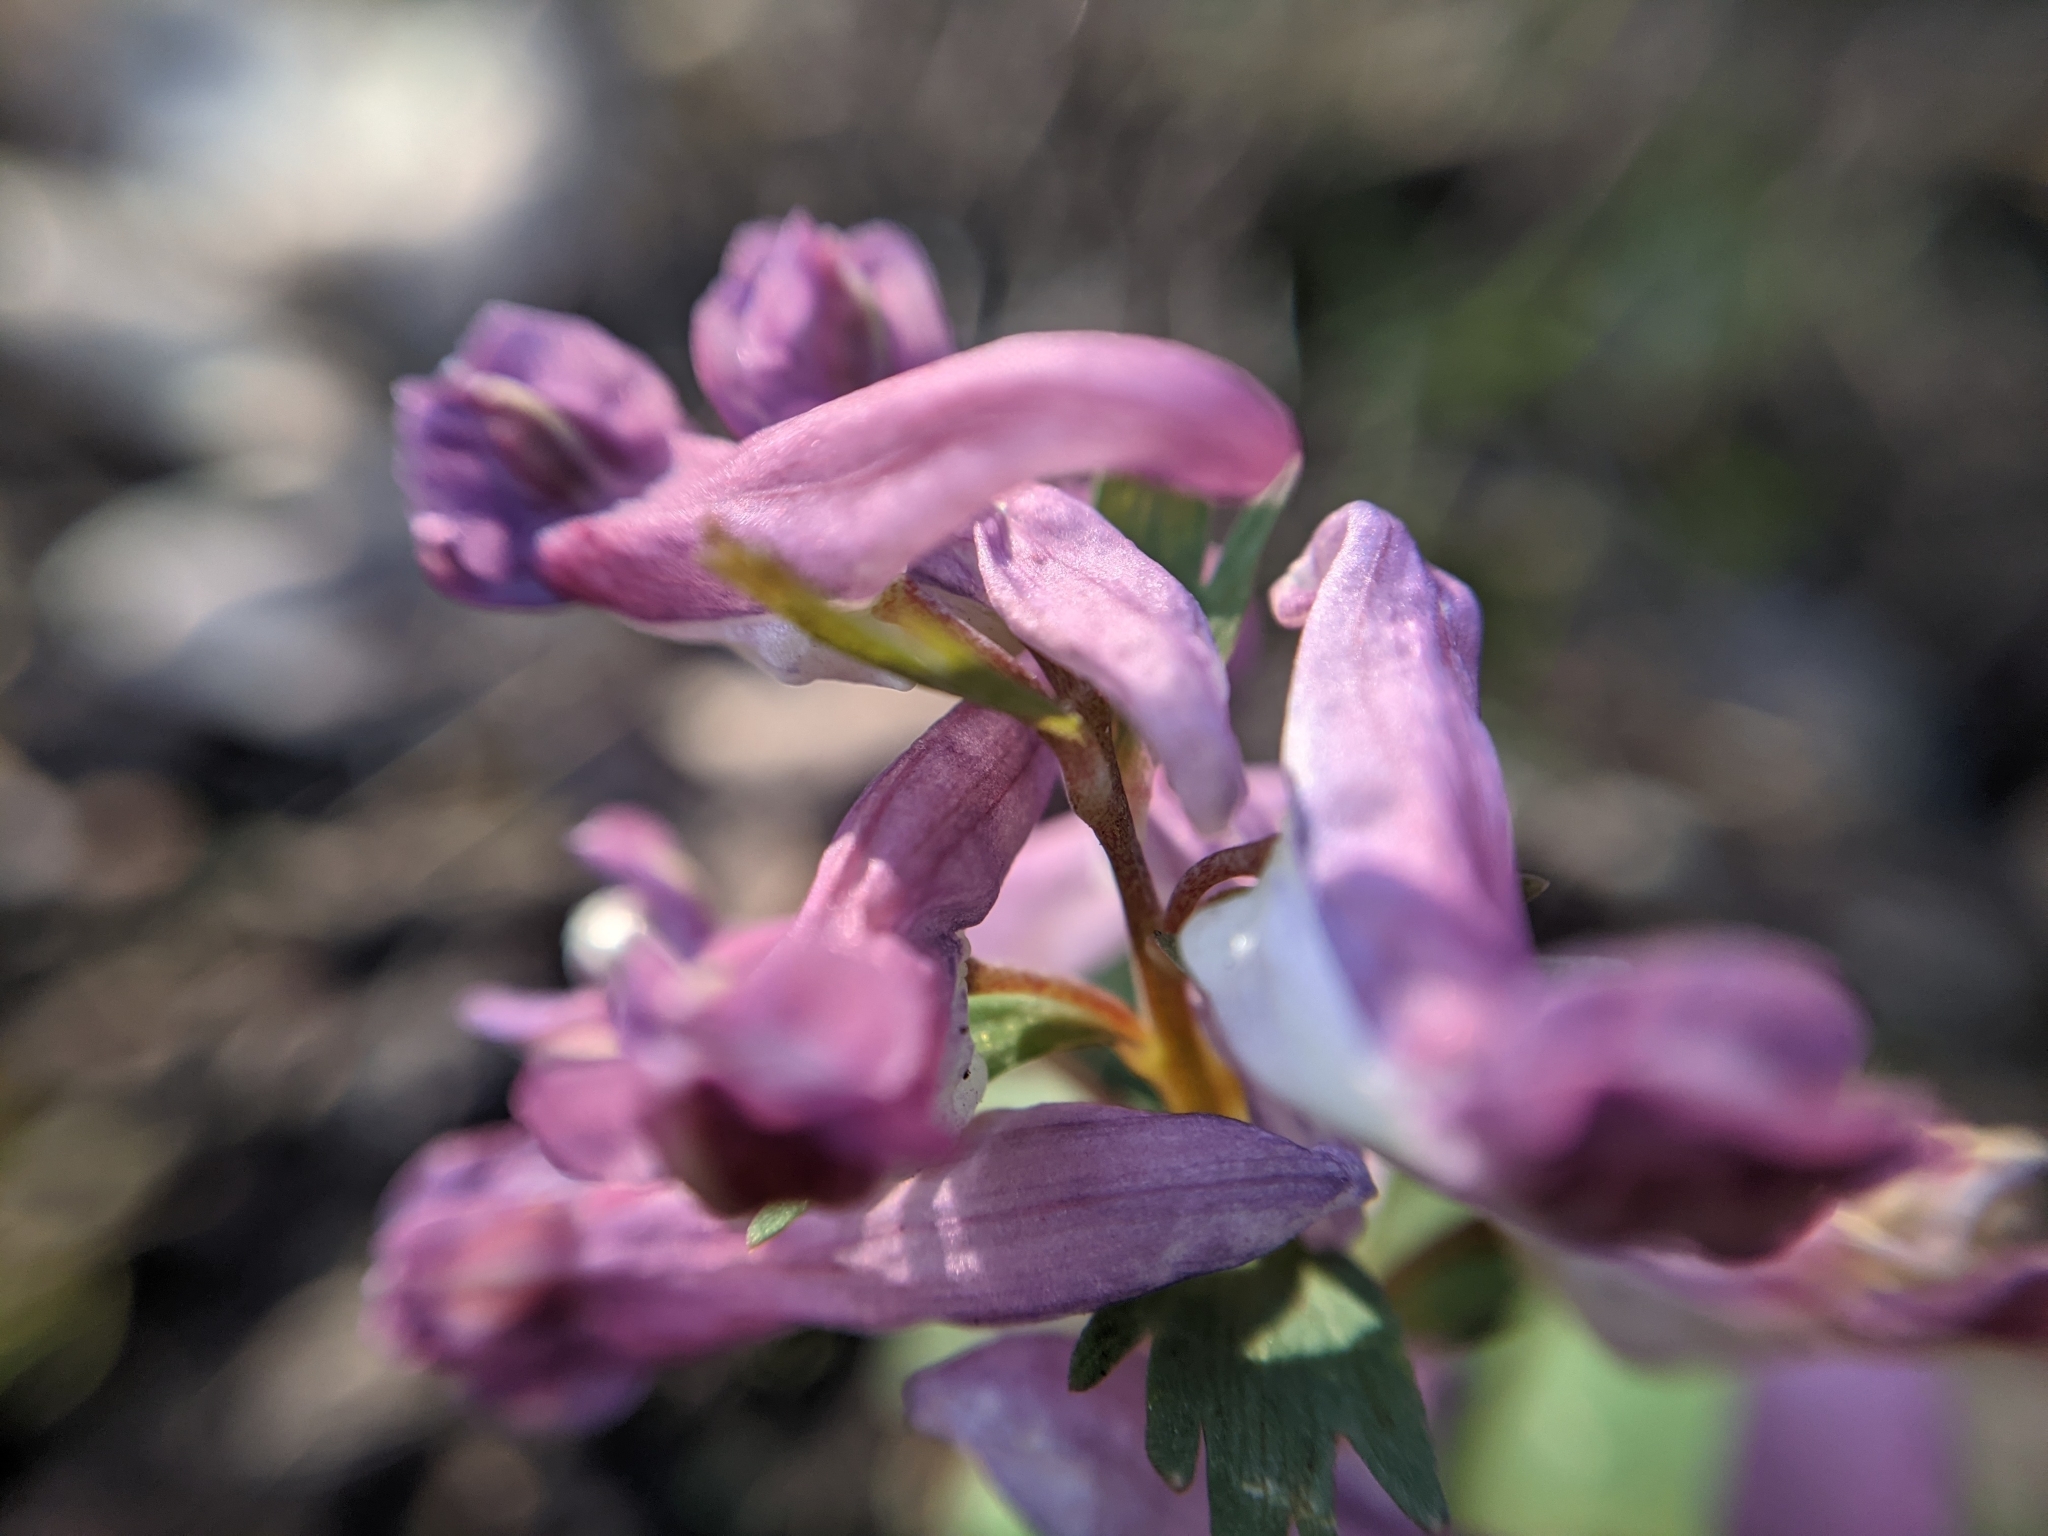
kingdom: Plantae
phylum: Tracheophyta
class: Magnoliopsida
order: Ranunculales
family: Papaveraceae
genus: Corydalis
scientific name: Corydalis solida
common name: Bird-in-a-bush
